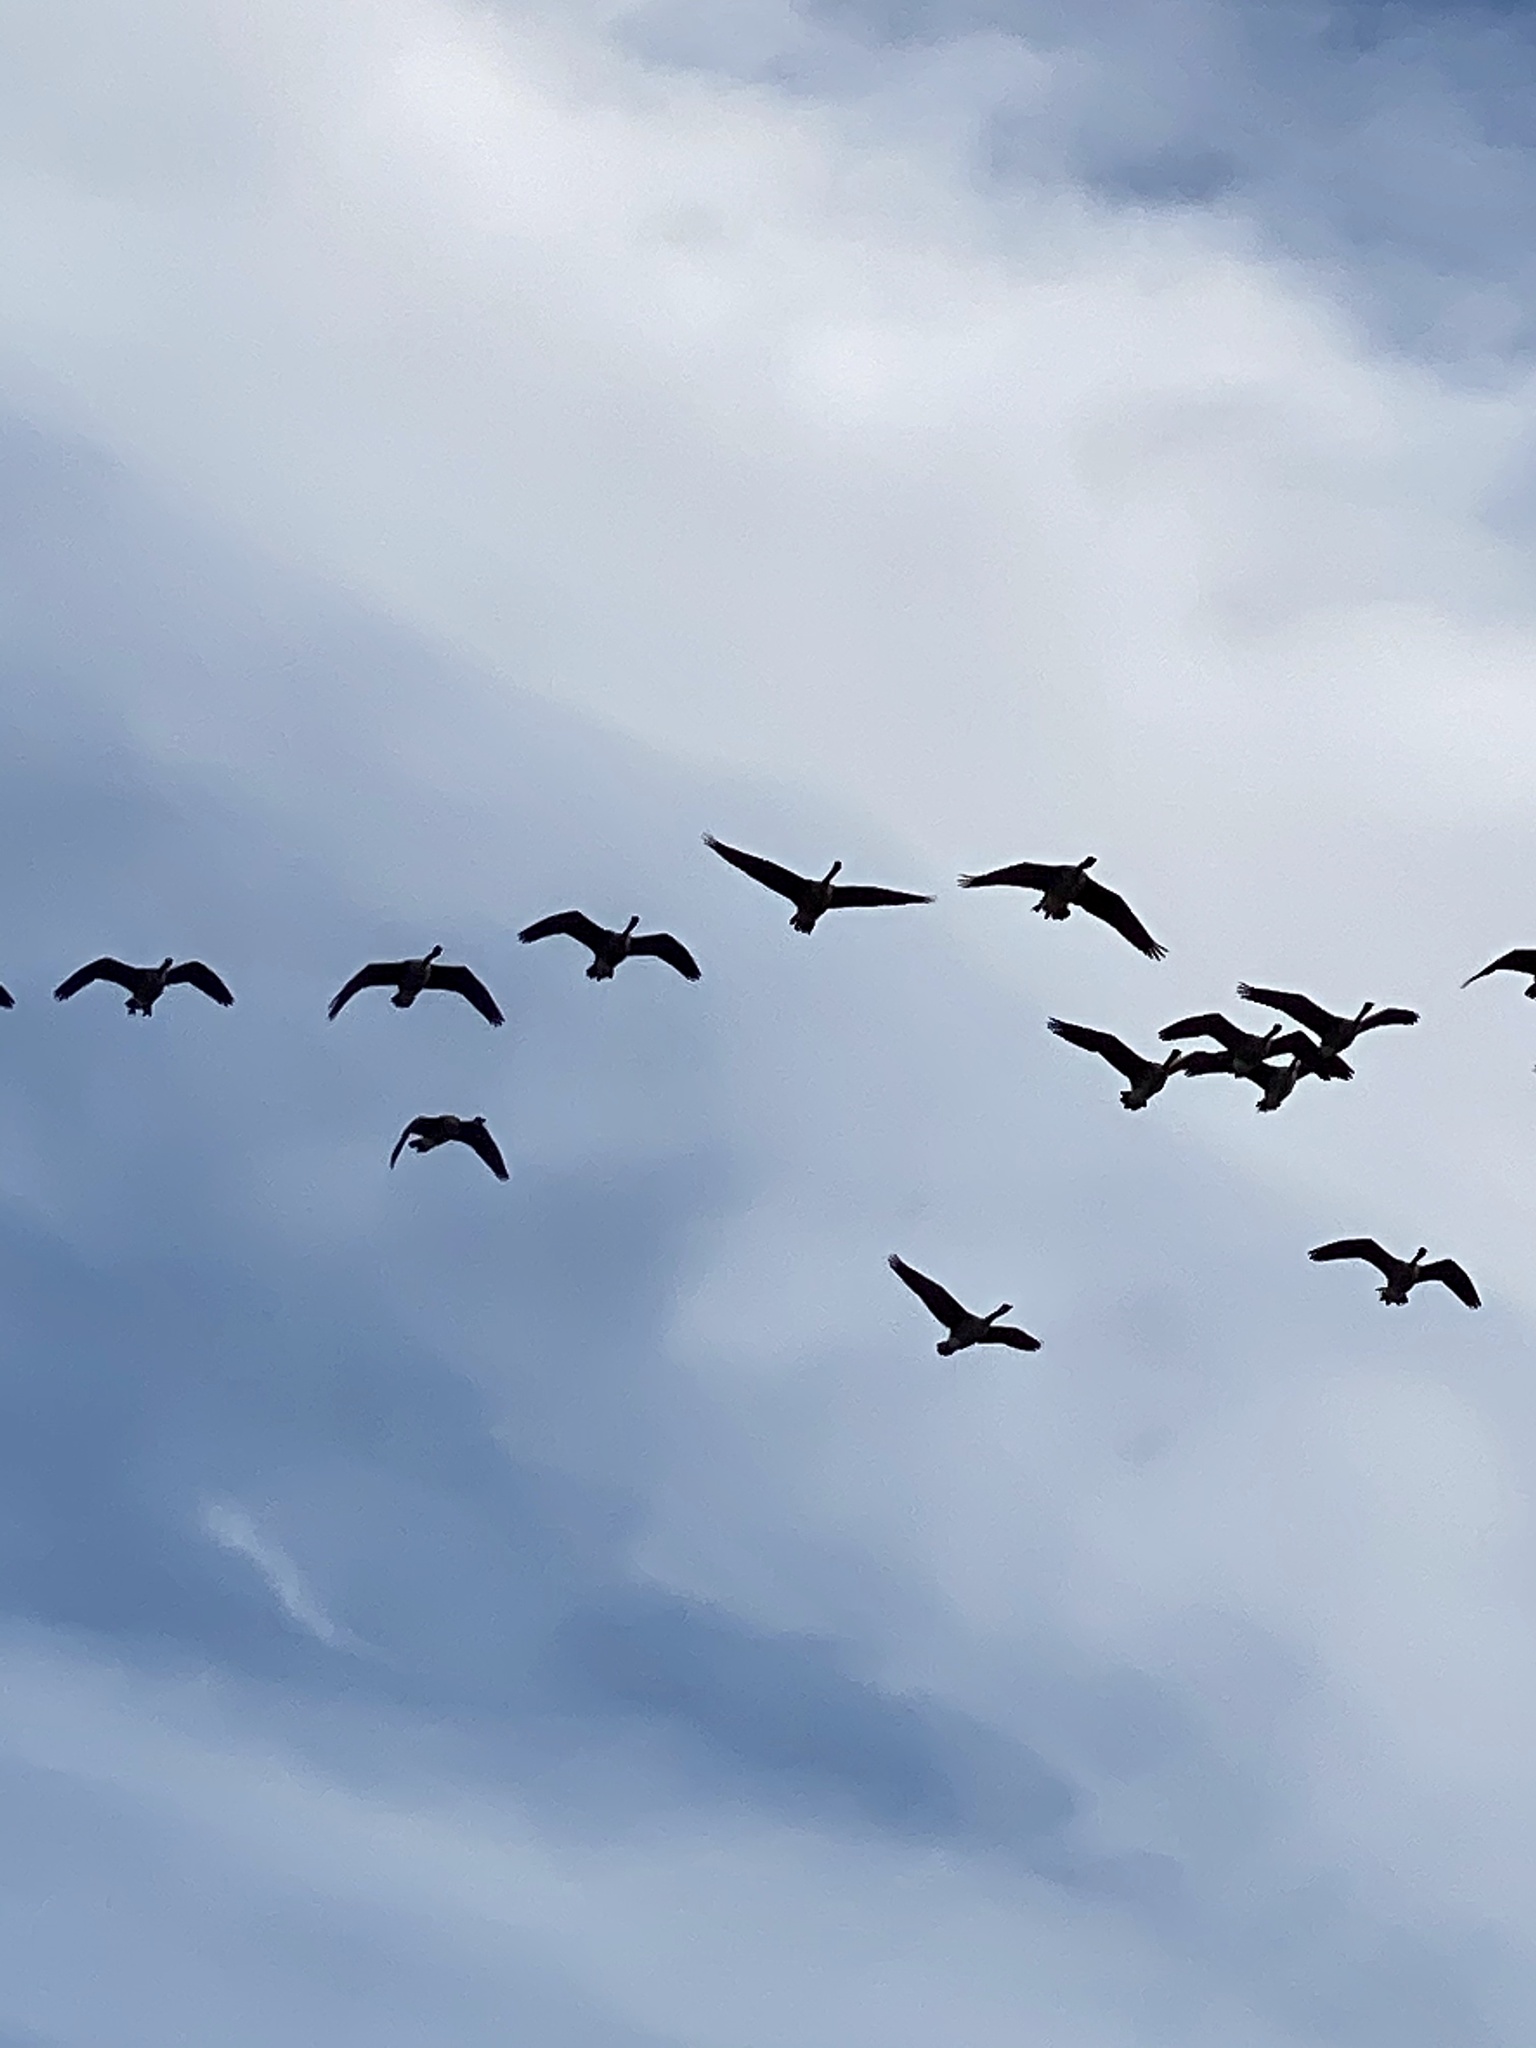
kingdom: Animalia
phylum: Chordata
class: Aves
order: Anseriformes
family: Anatidae
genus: Branta
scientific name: Branta canadensis
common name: Canada goose
